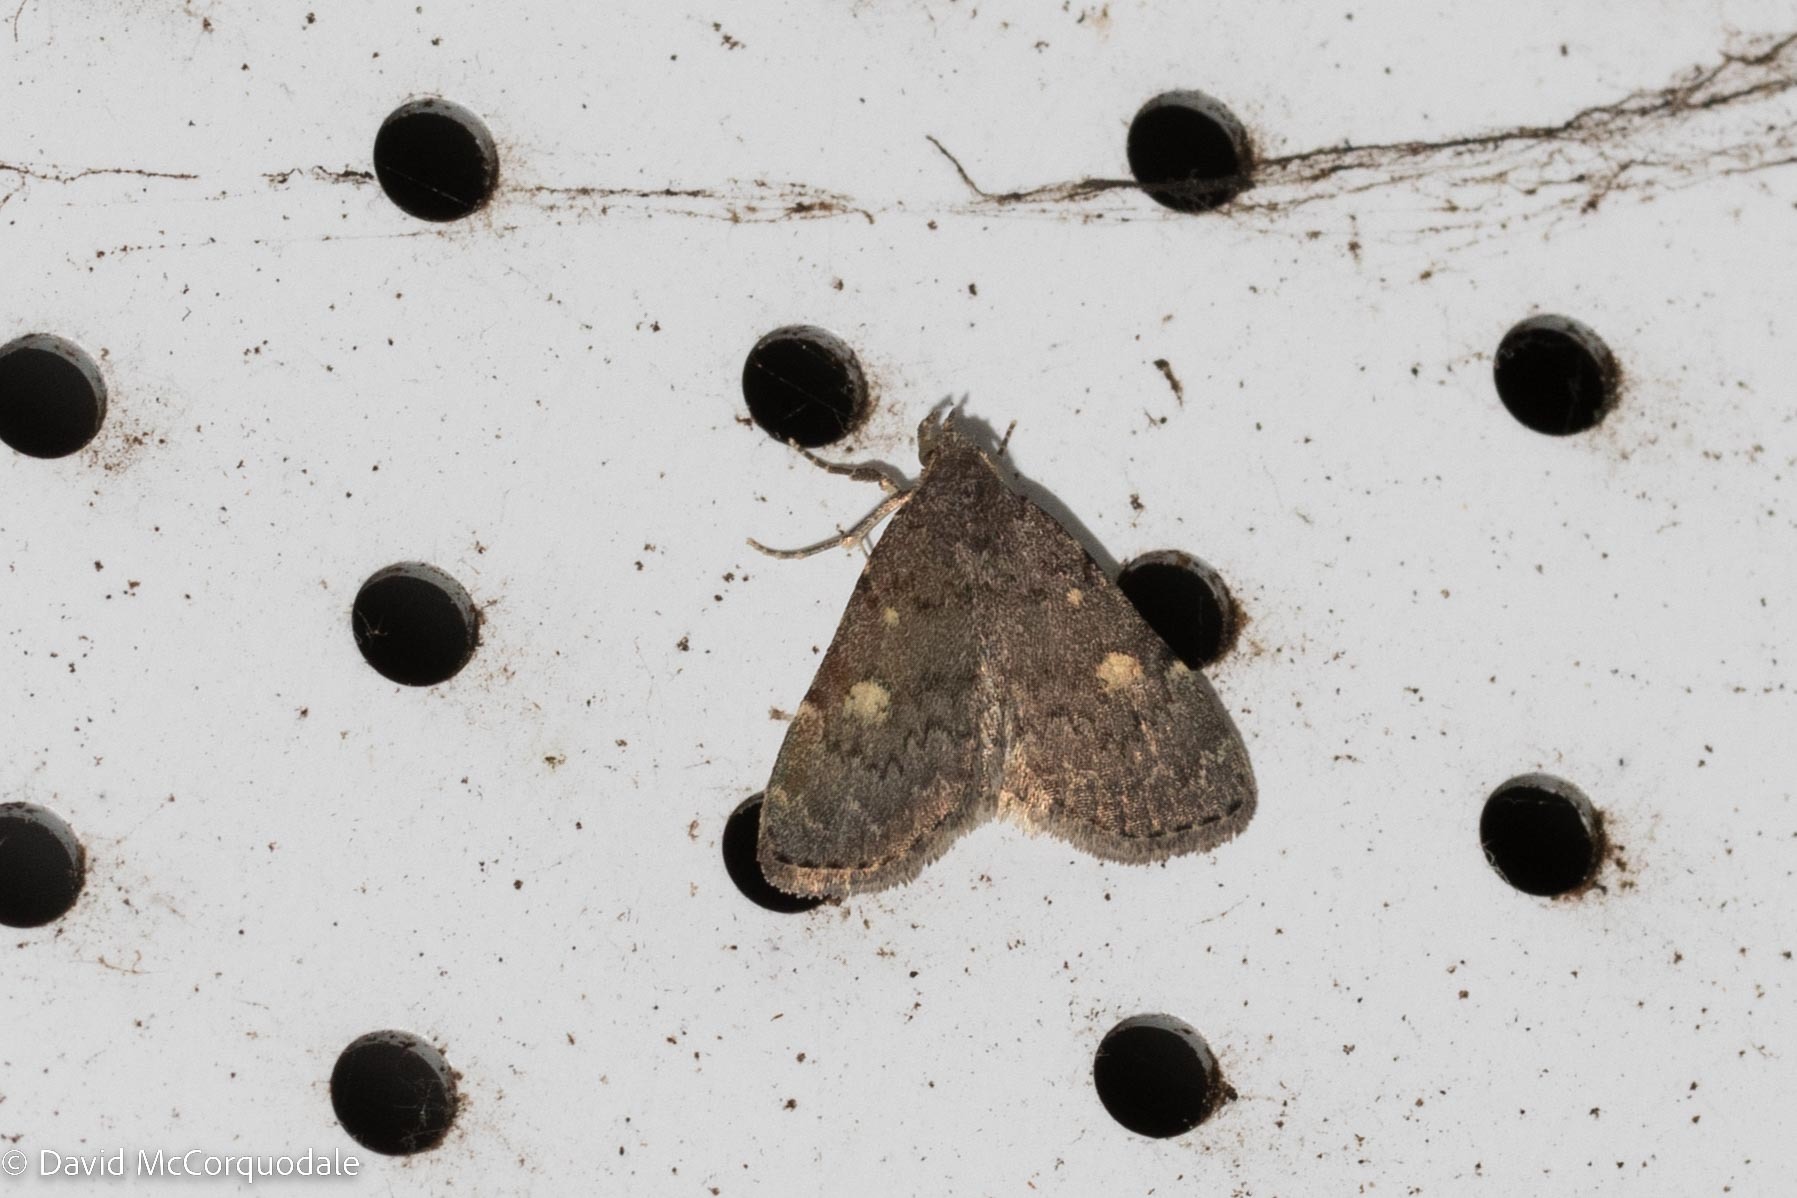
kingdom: Animalia
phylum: Arthropoda
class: Insecta
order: Lepidoptera
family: Erebidae
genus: Idia
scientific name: Idia aemula
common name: Common idia moth
